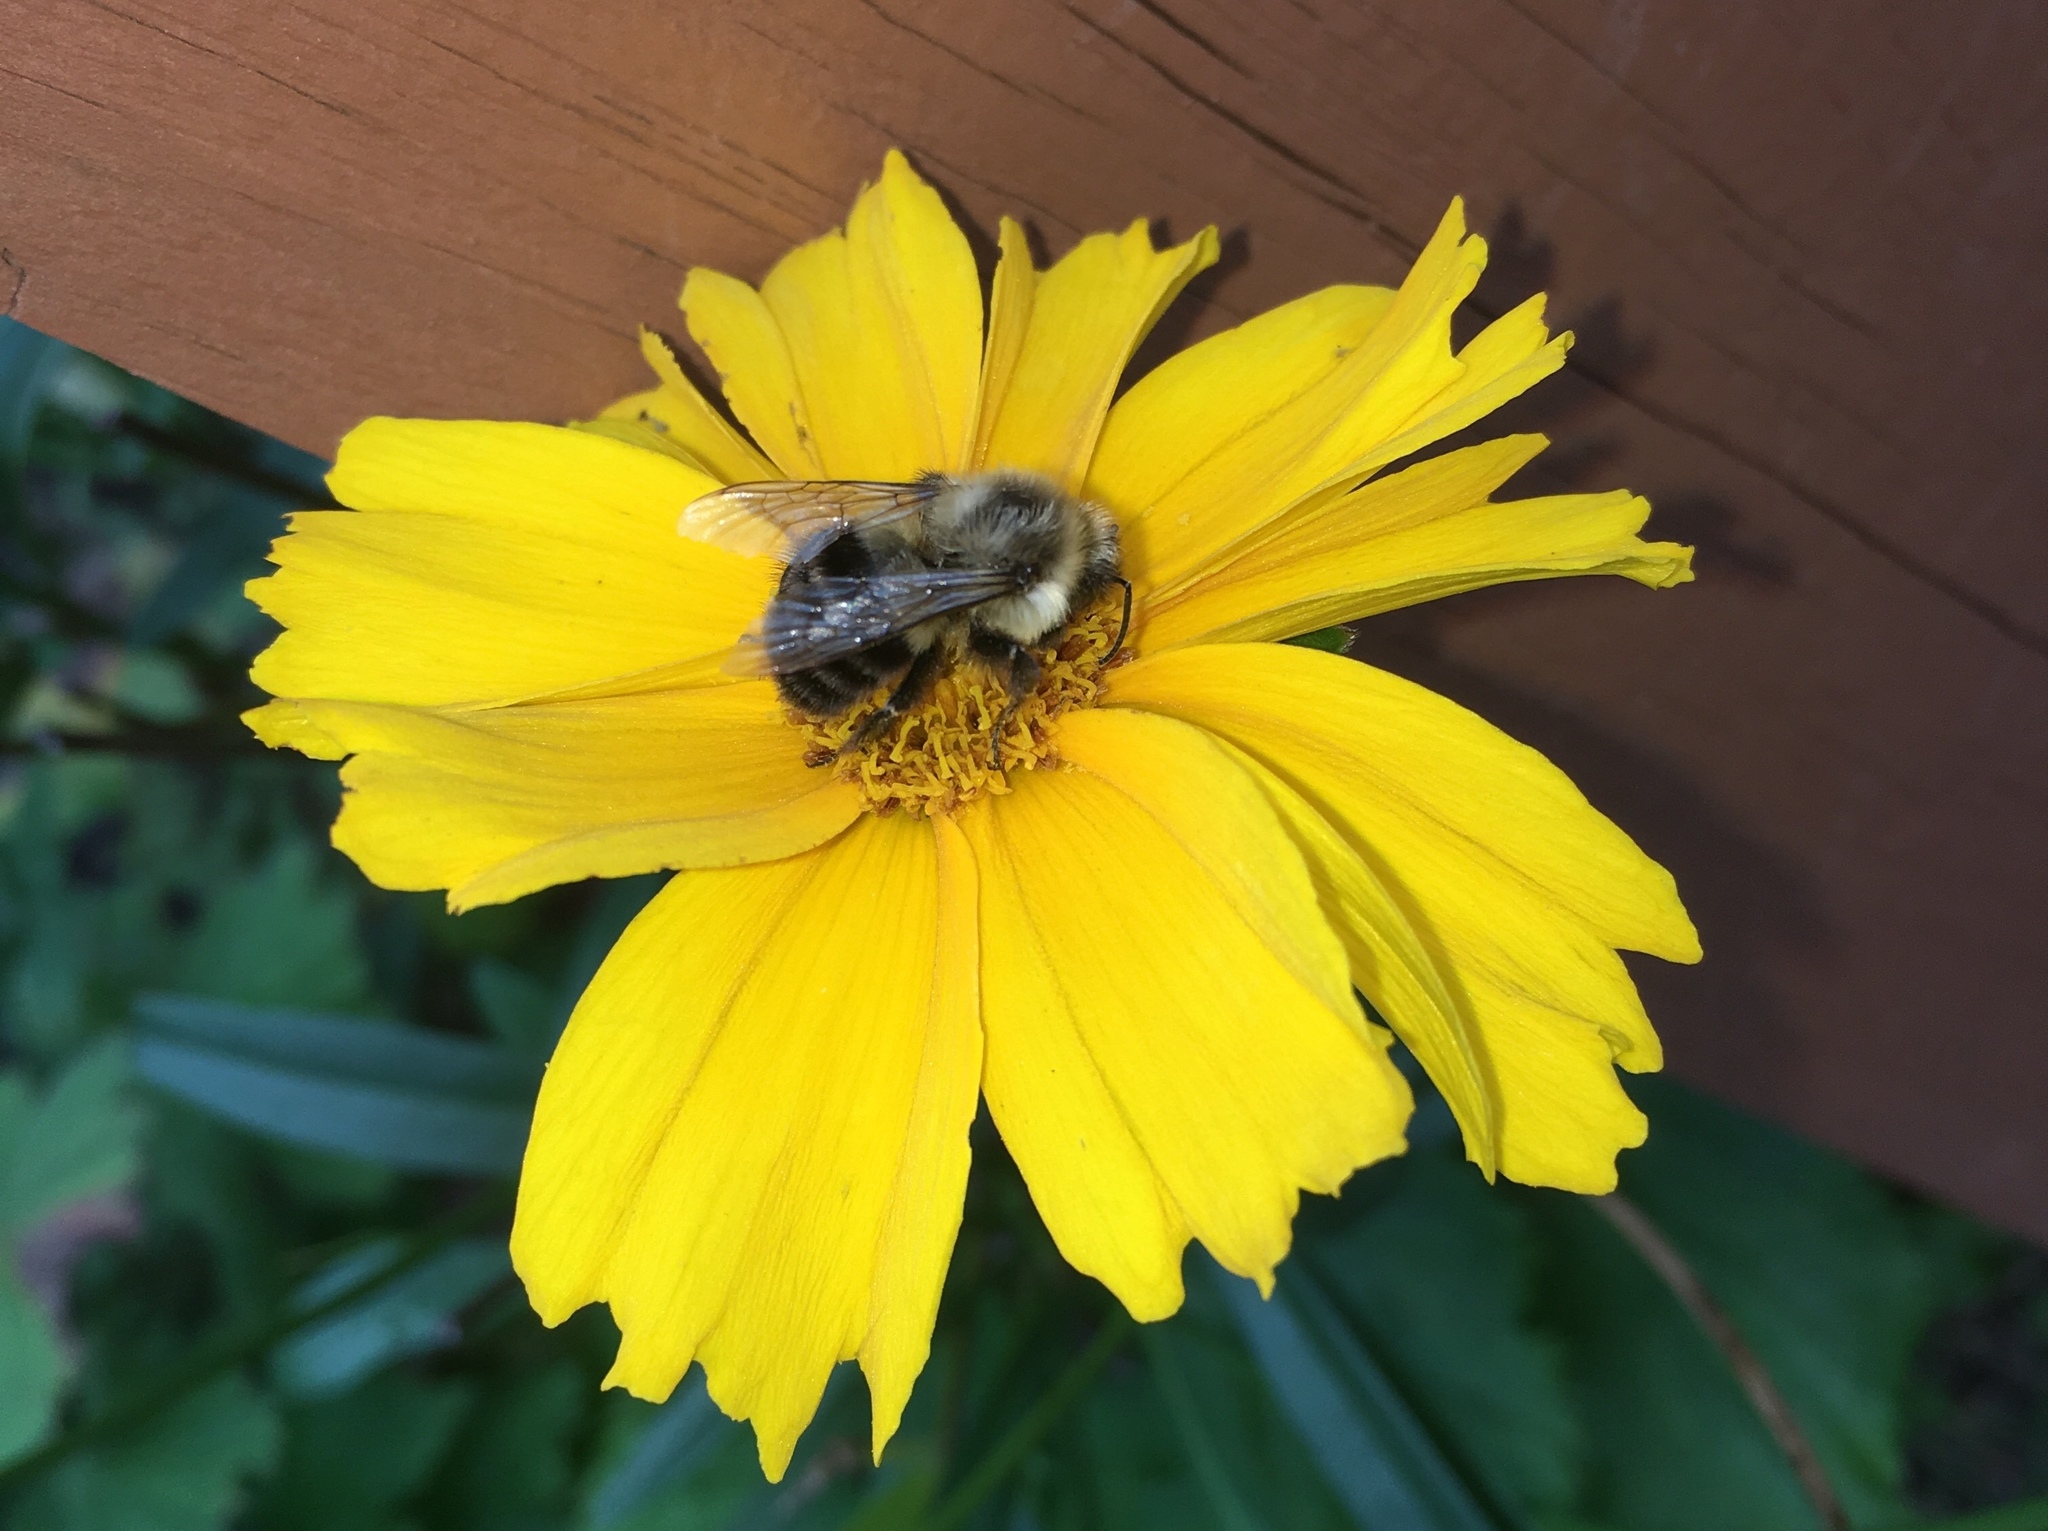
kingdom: Animalia
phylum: Arthropoda
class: Insecta
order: Hymenoptera
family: Apidae
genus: Bombus
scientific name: Bombus impatiens
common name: Common eastern bumble bee
